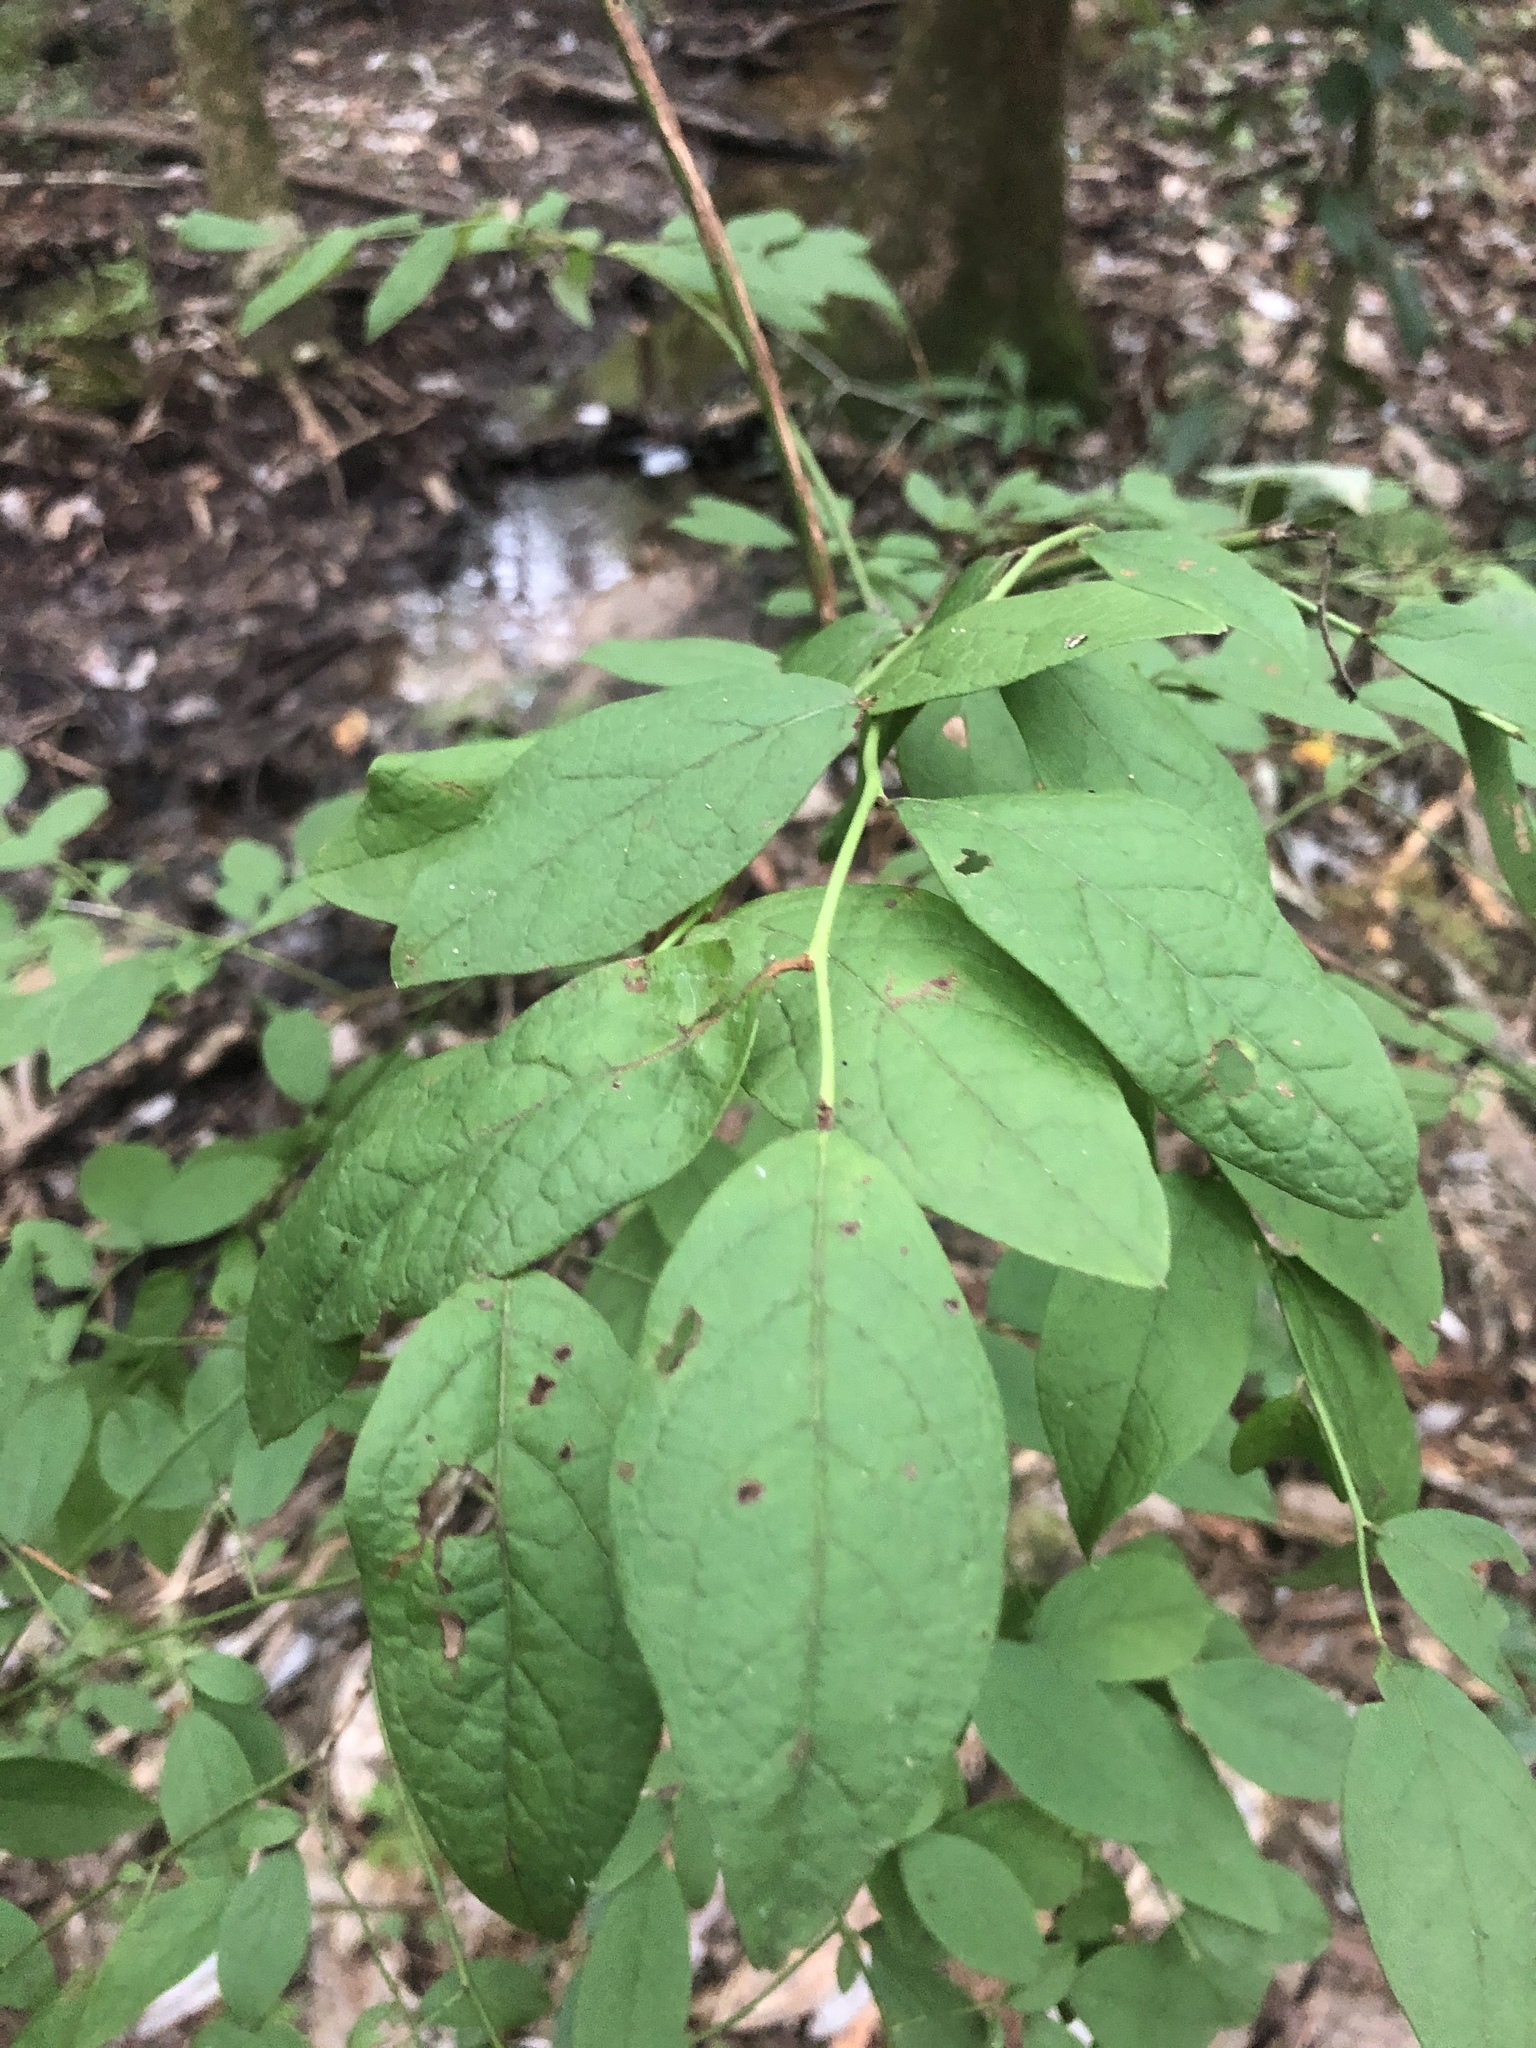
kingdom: Plantae
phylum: Tracheophyta
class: Magnoliopsida
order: Ericales
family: Ericaceae
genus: Vaccinium
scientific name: Vaccinium corymbosum
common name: Blueberry
